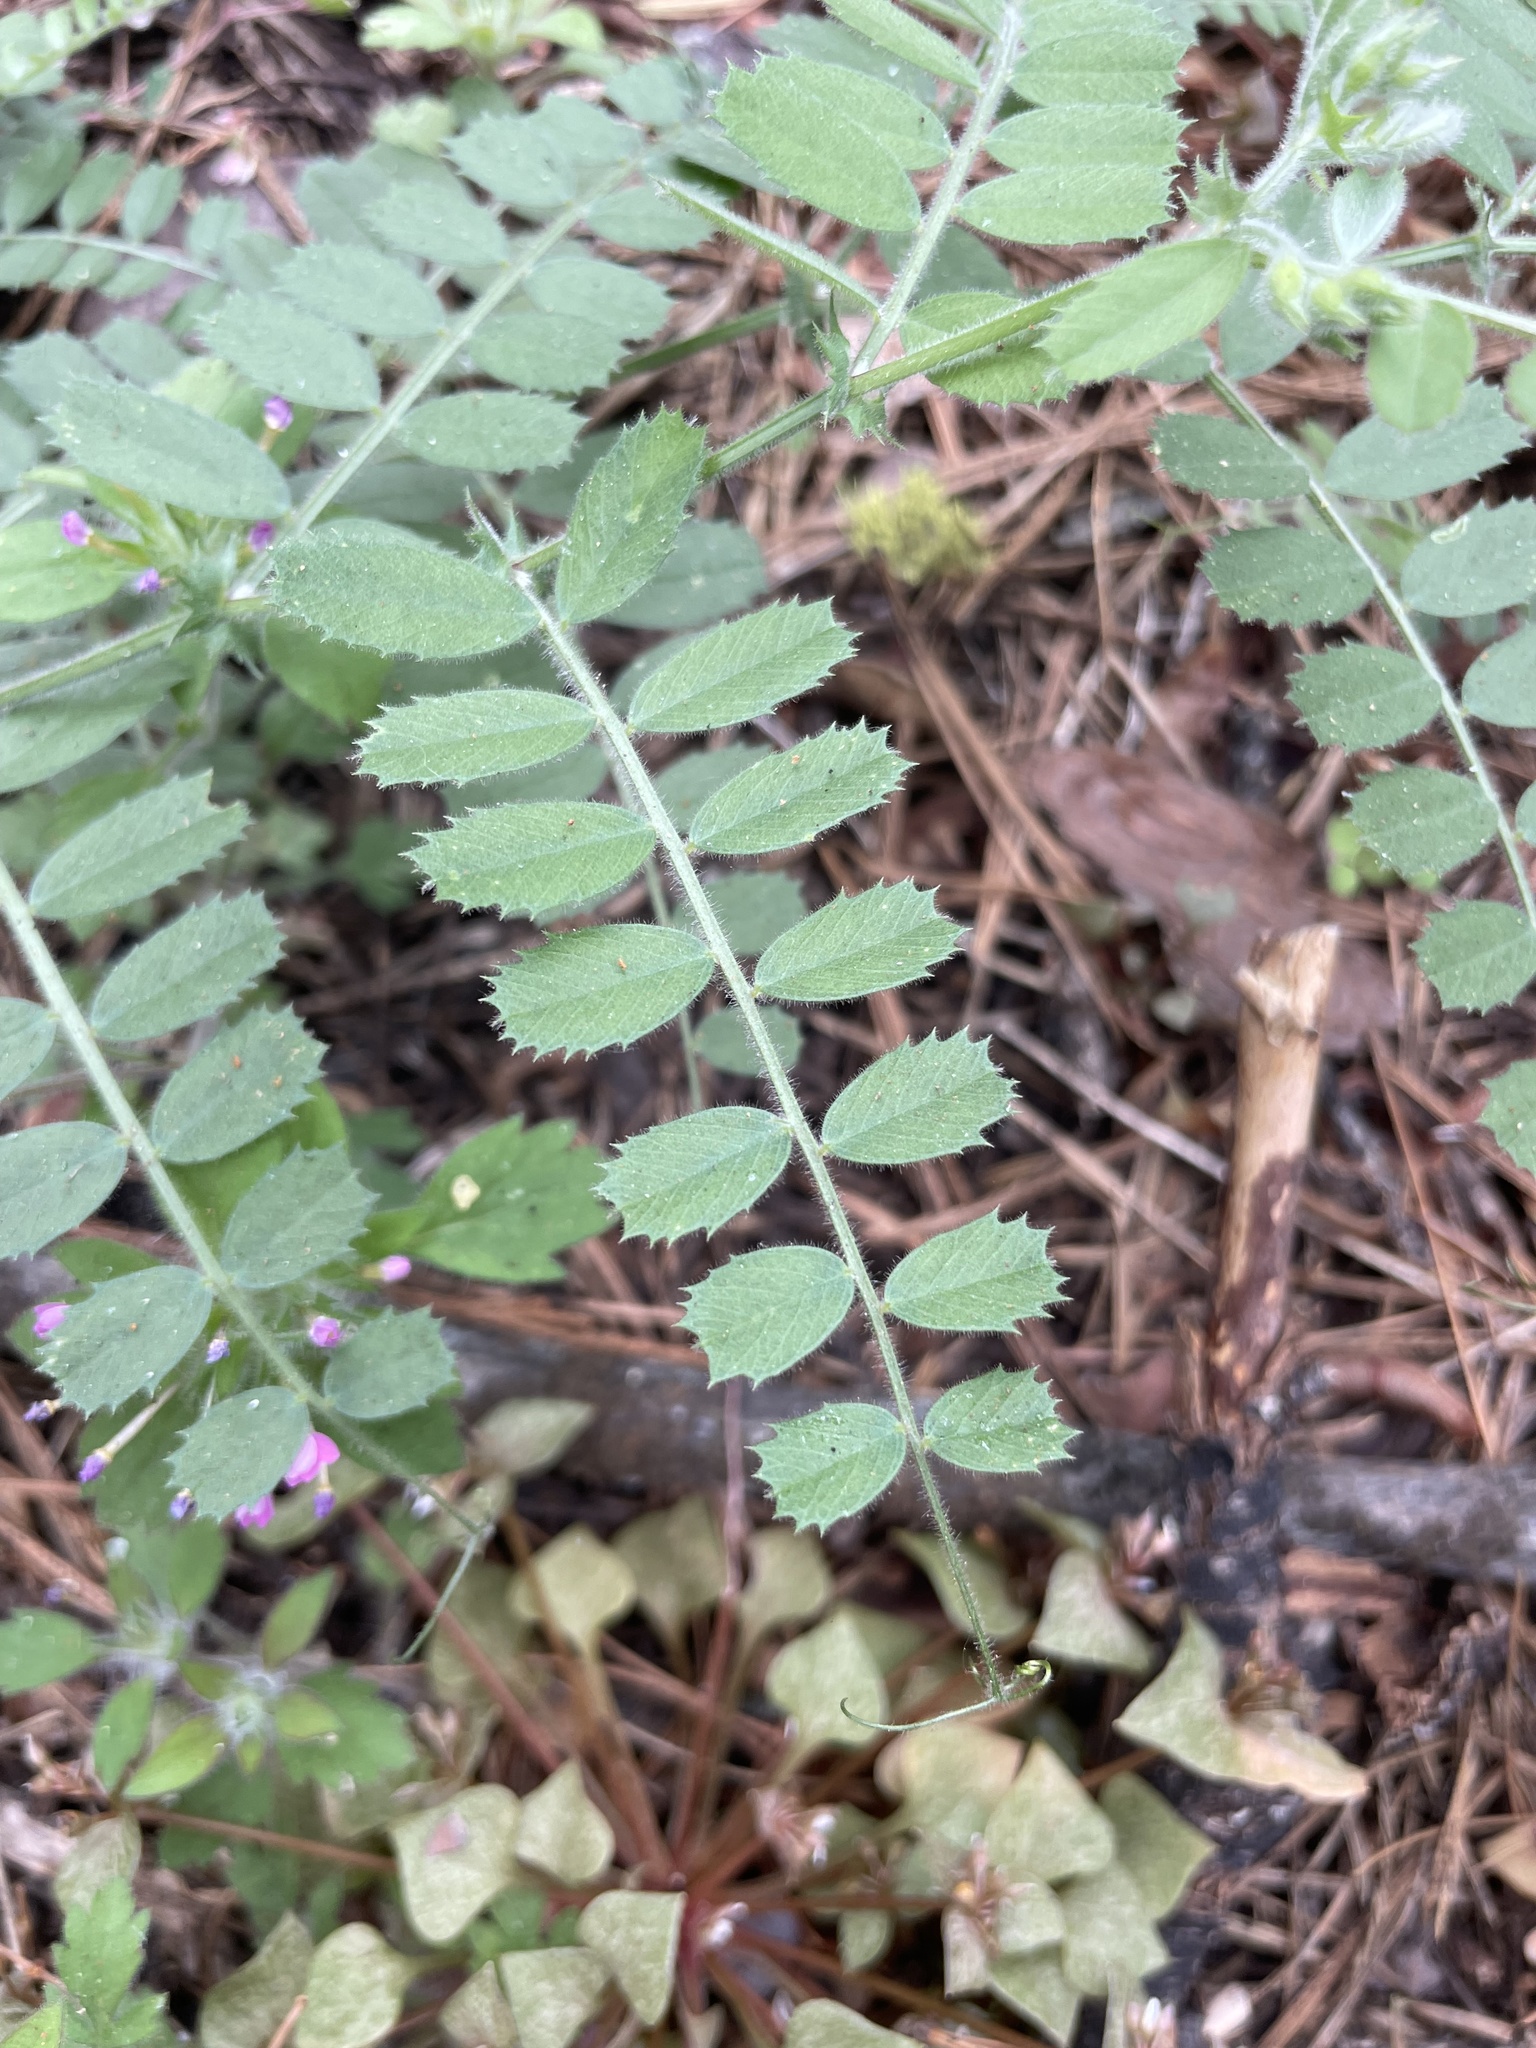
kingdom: Plantae
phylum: Tracheophyta
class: Magnoliopsida
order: Fabales
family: Fabaceae
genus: Vicia
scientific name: Vicia americana
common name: American vetch
